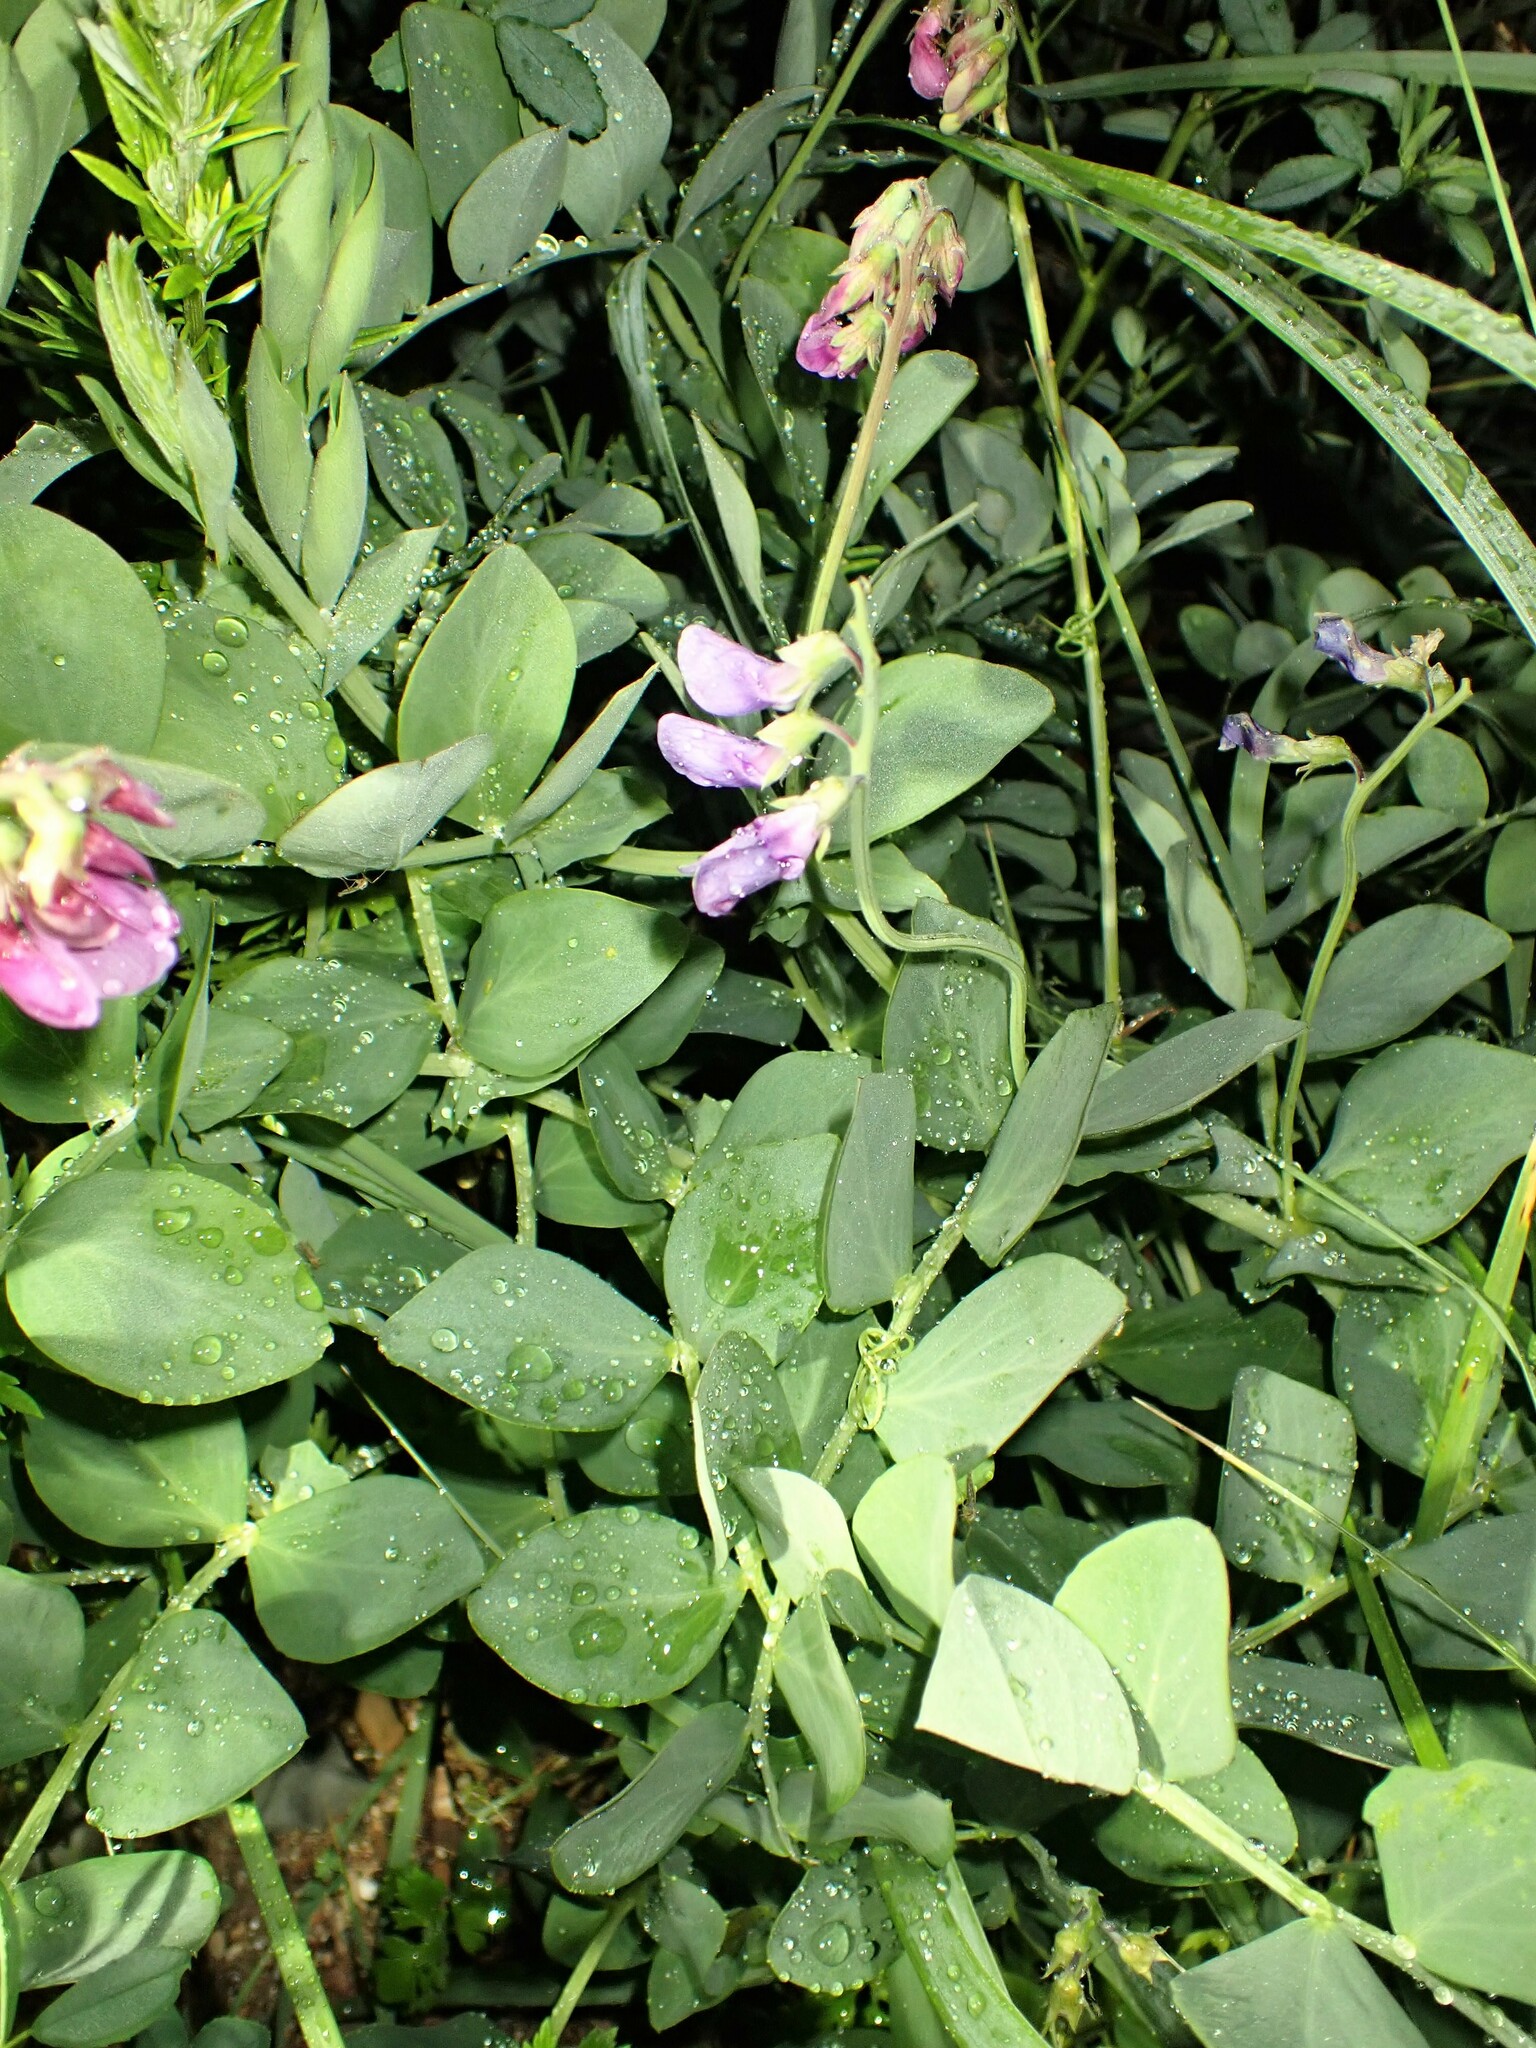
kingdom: Plantae
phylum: Tracheophyta
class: Magnoliopsida
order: Fabales
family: Fabaceae
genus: Lathyrus
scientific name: Lathyrus japonicus
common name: Sea pea
